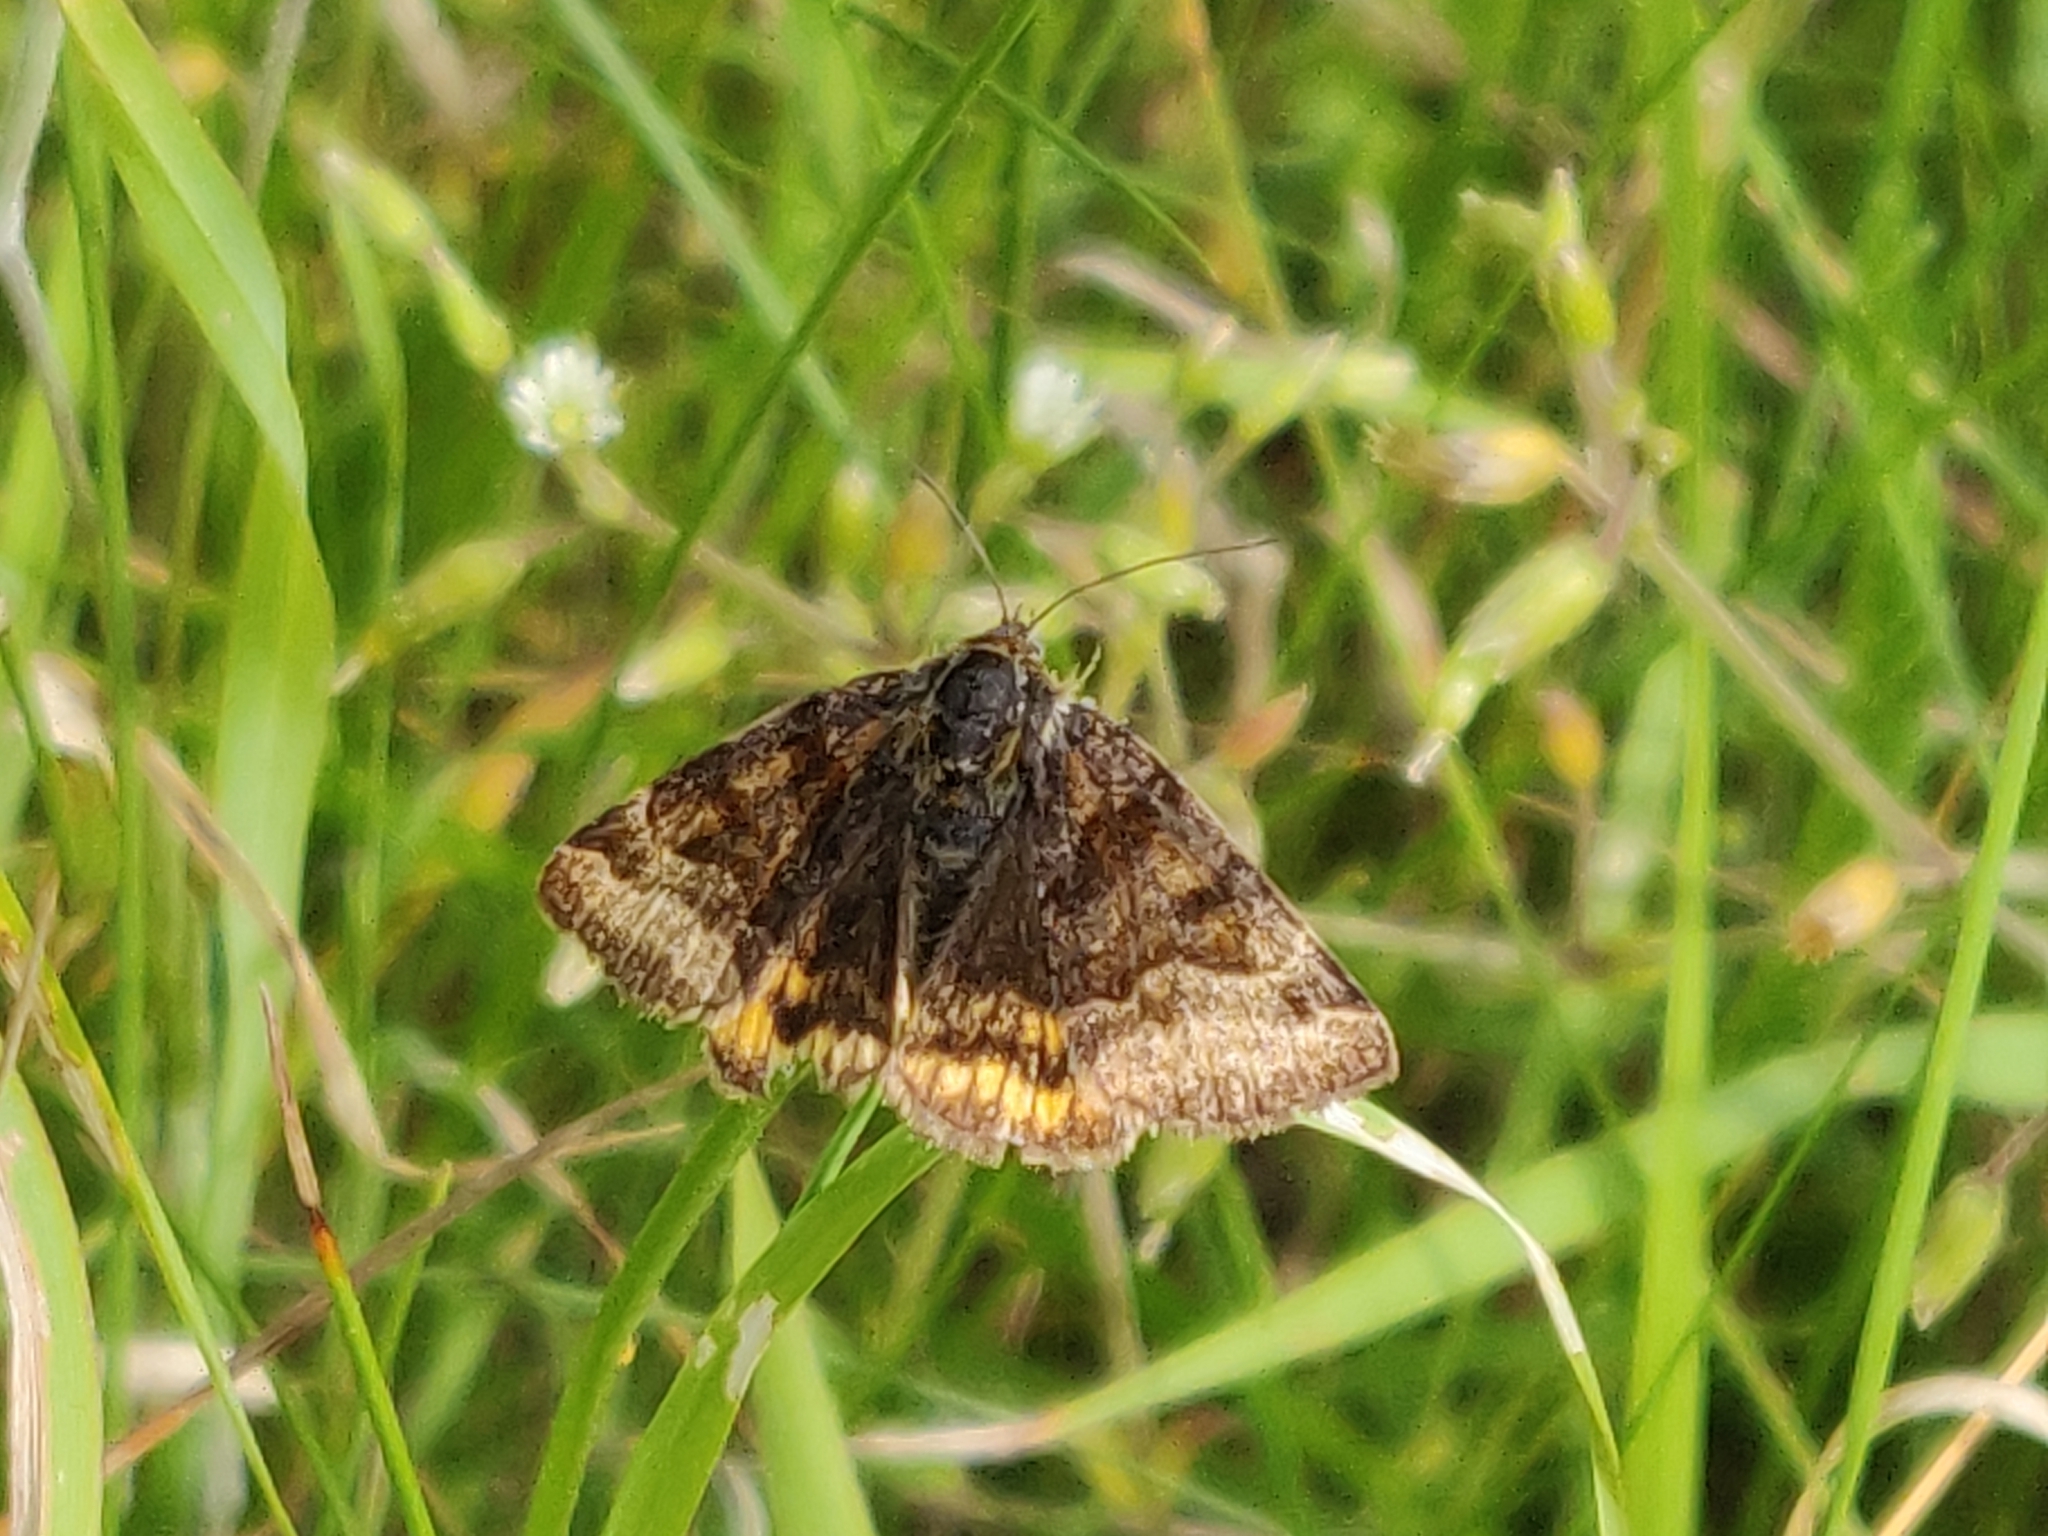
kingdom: Animalia
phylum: Arthropoda
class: Insecta
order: Lepidoptera
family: Erebidae
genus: Euclidia
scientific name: Euclidia glyphica
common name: Burnet companion
